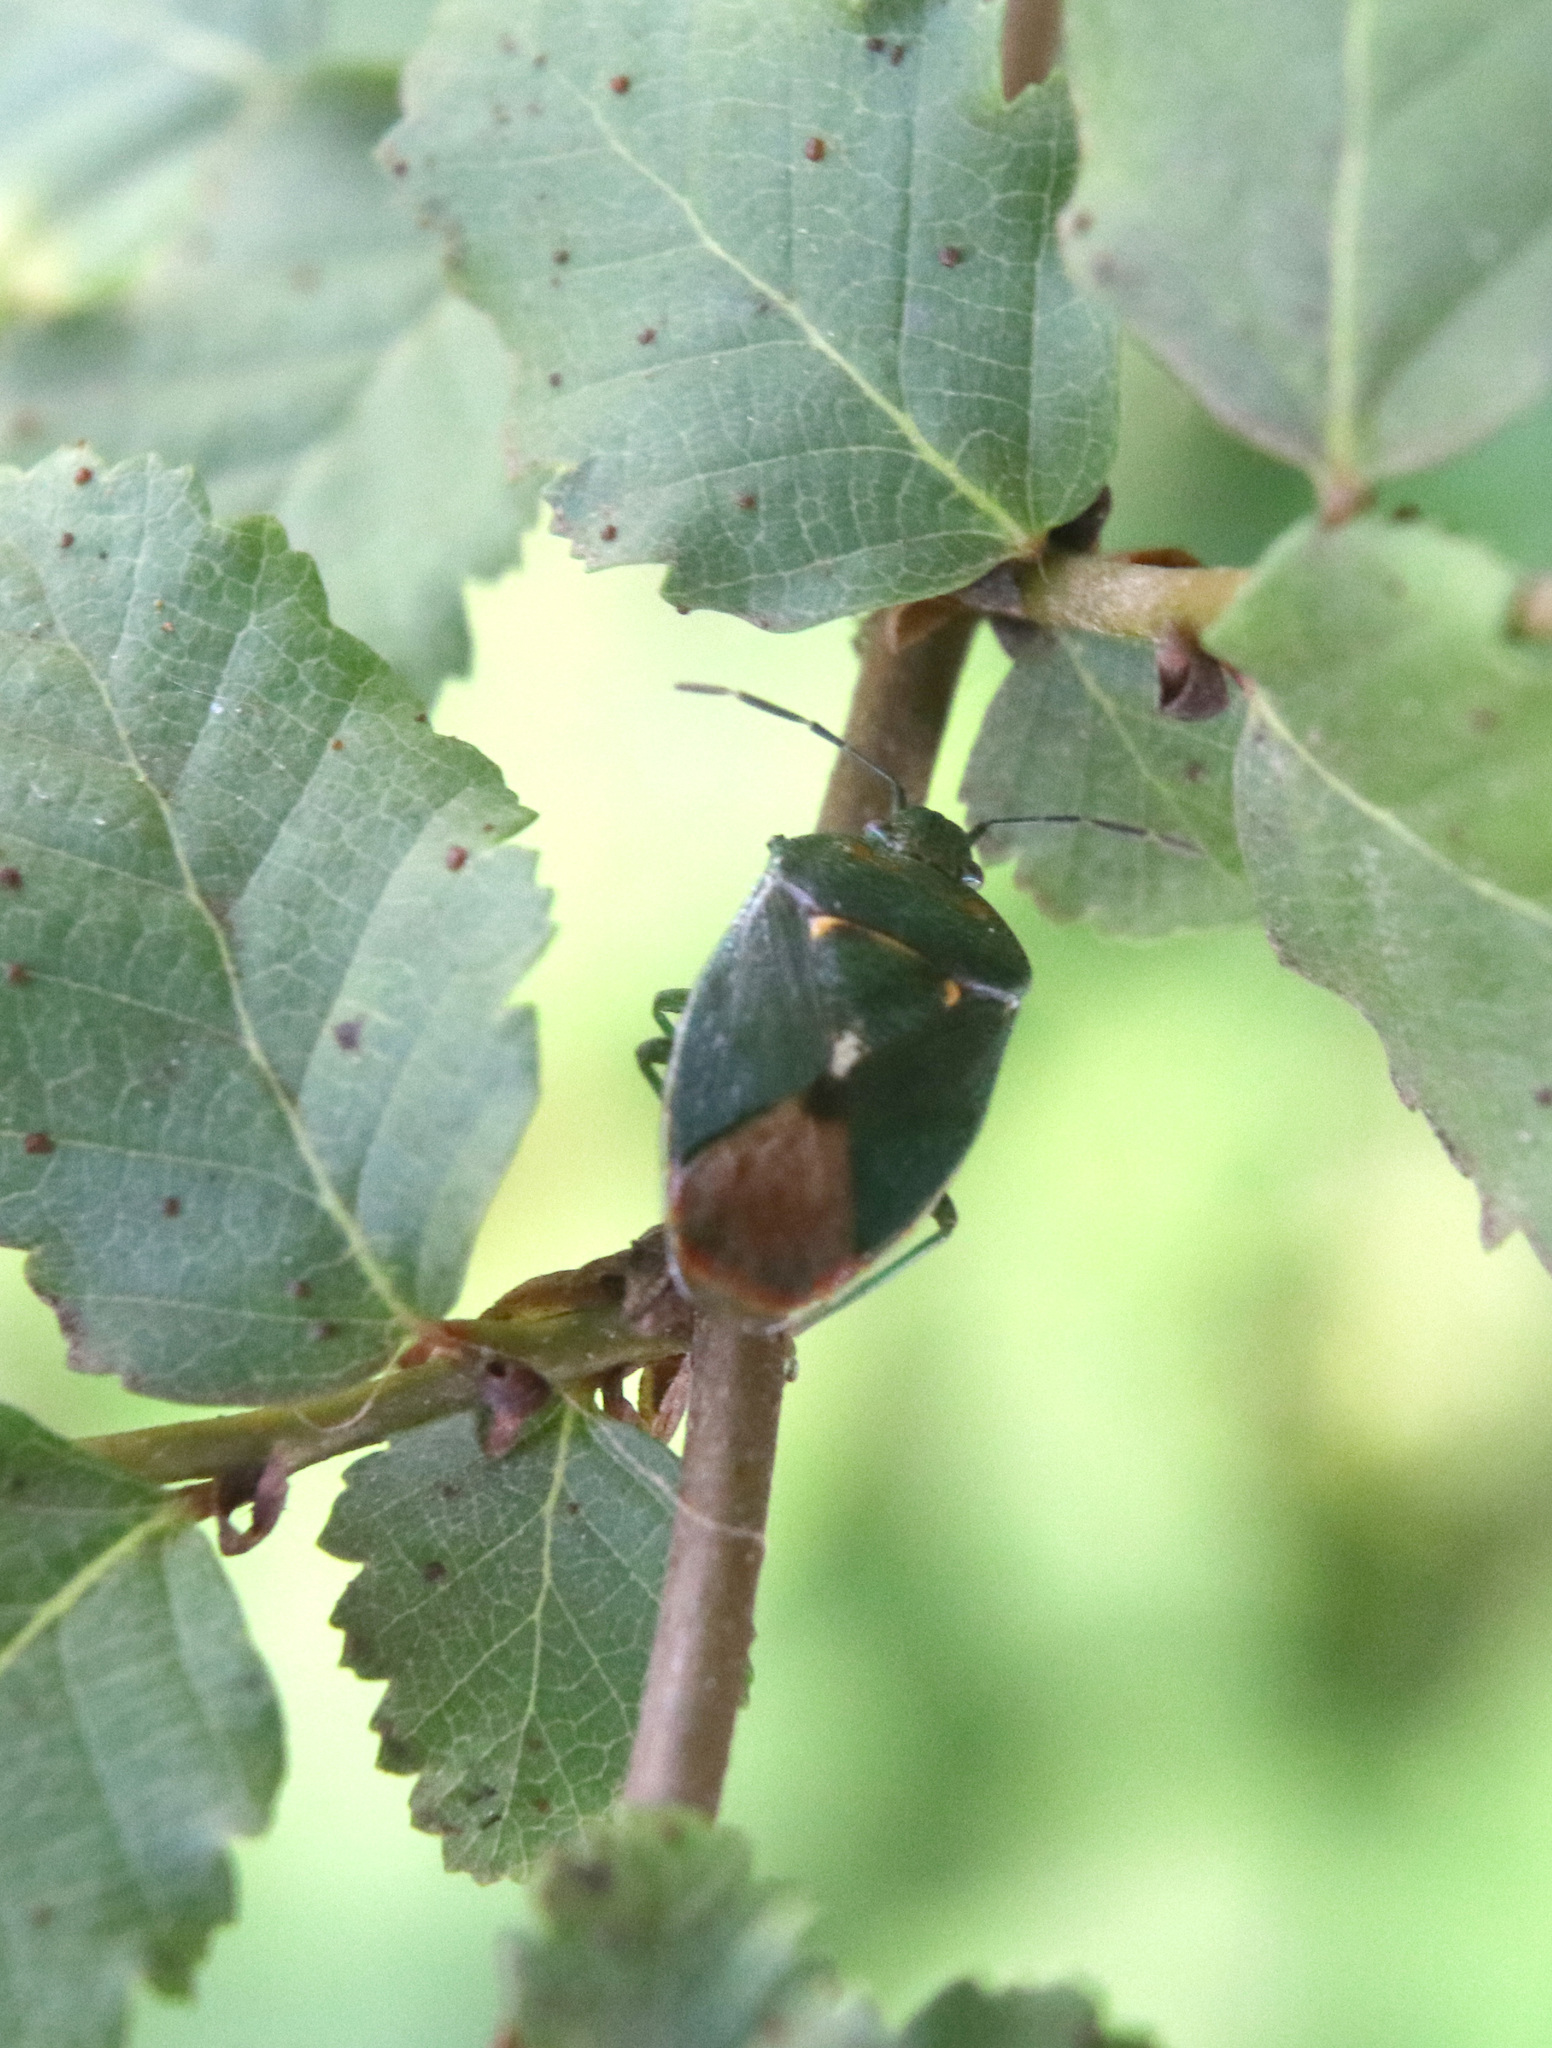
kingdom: Animalia
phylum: Arthropoda
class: Insecta
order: Hemiptera
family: Acanthosomatidae
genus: Ditomotarsus
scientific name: Ditomotarsus punctiventris
